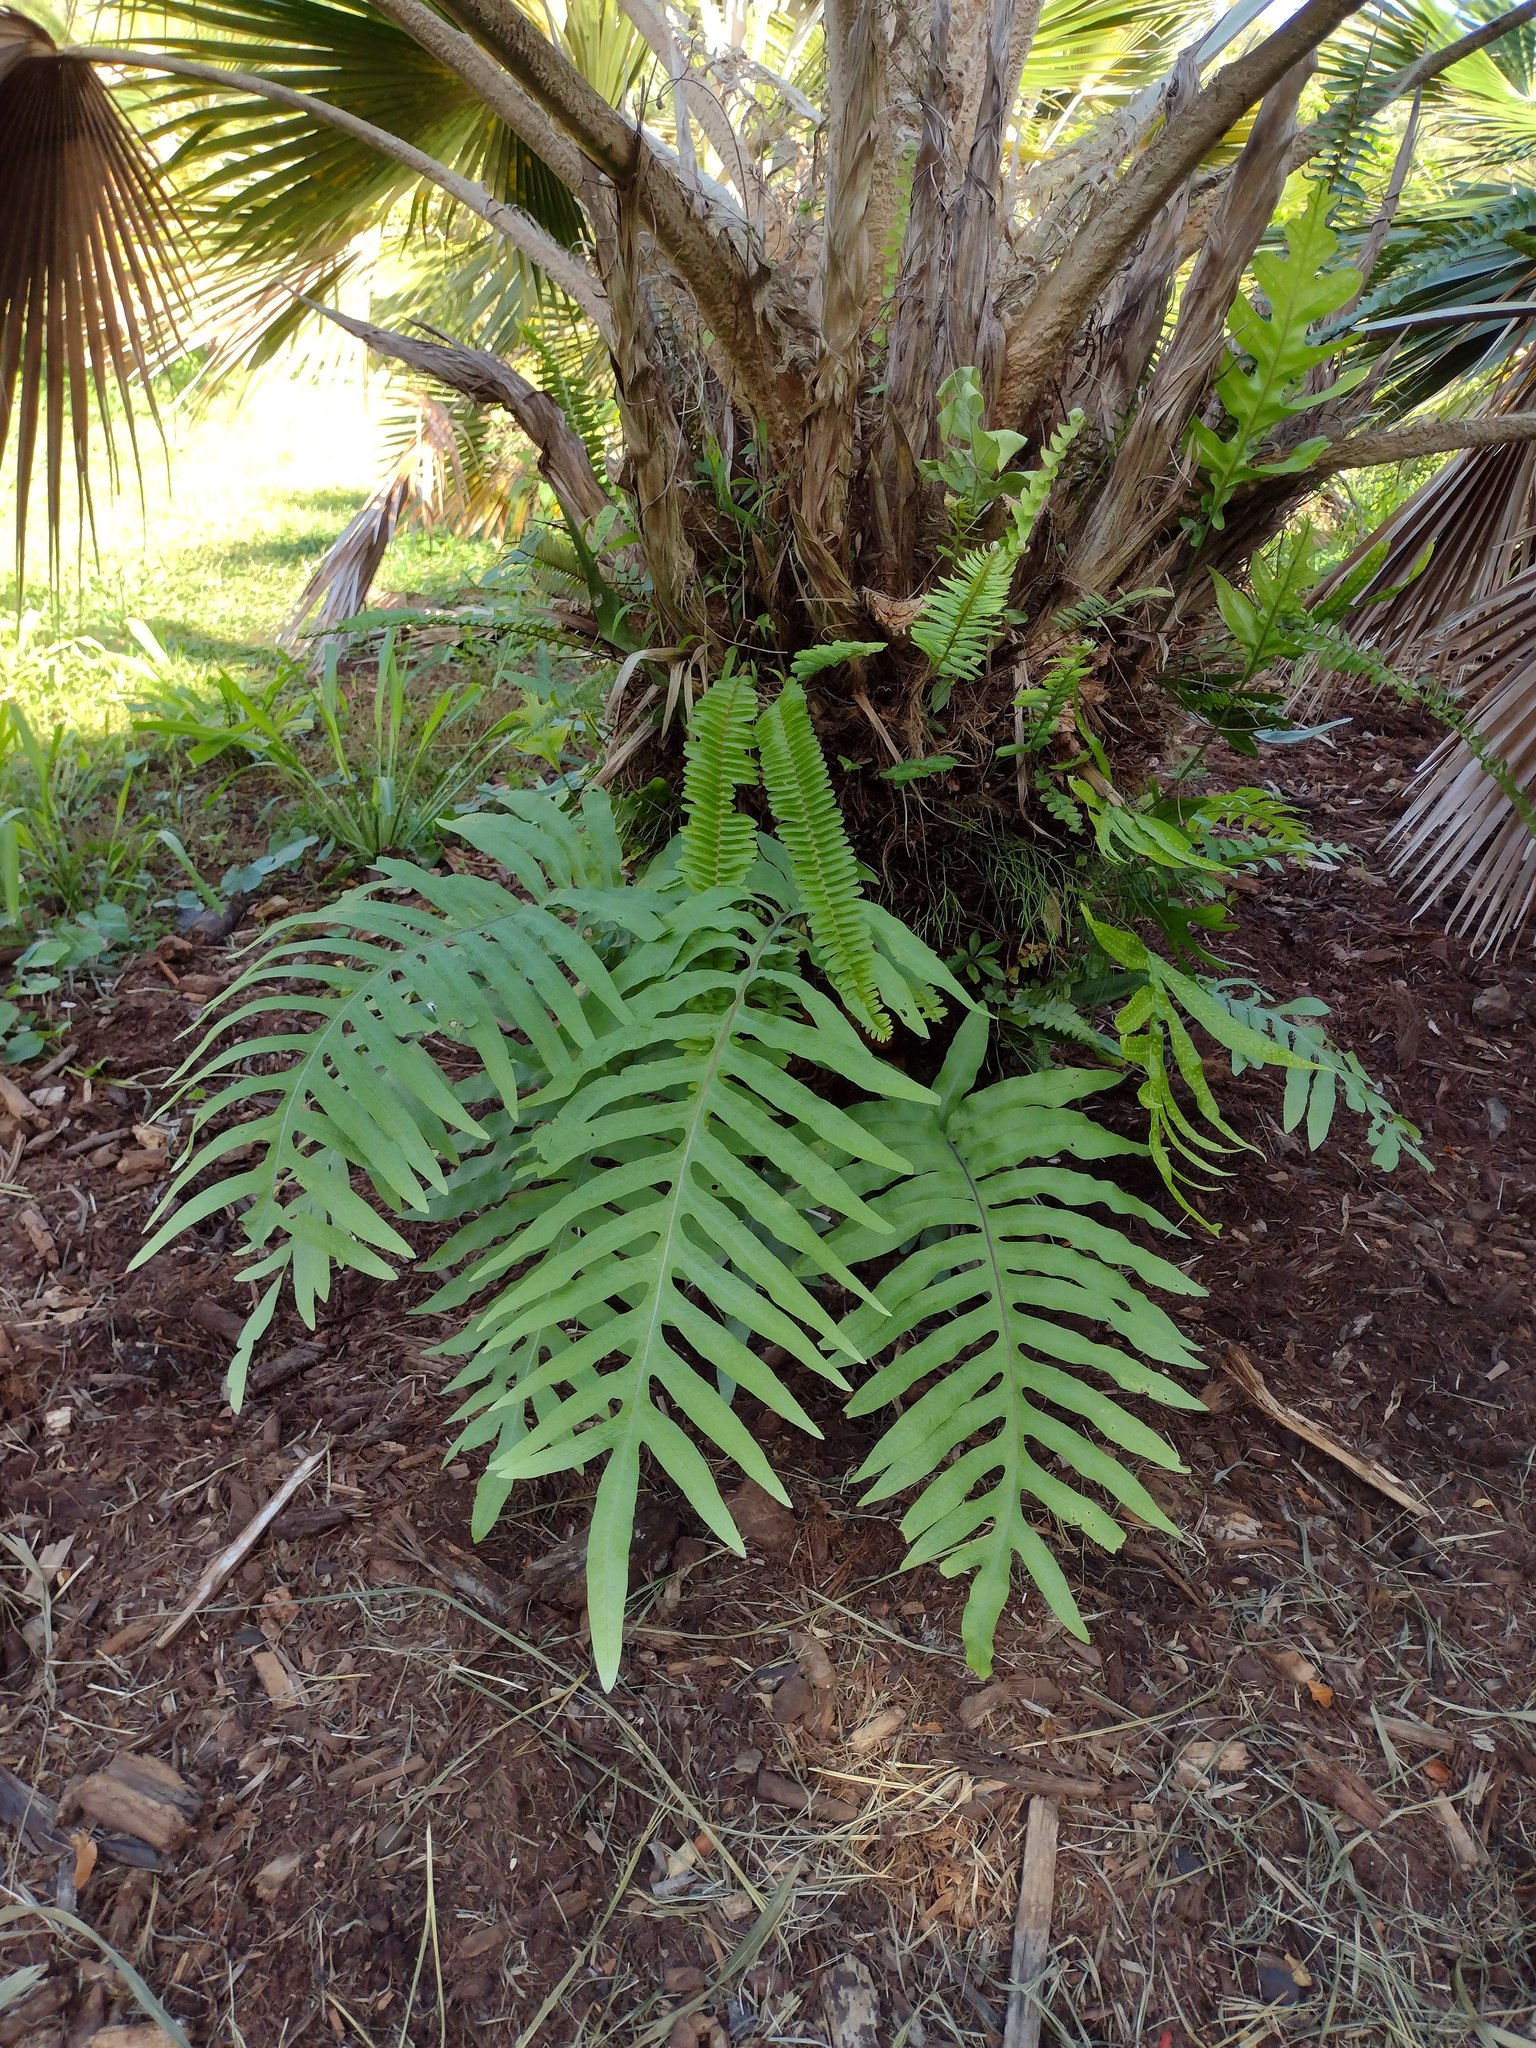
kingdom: Plantae
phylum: Tracheophyta
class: Polypodiopsida
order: Polypodiales
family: Polypodiaceae
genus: Phlebodium
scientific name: Phlebodium aureum
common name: Gold-foot fern
